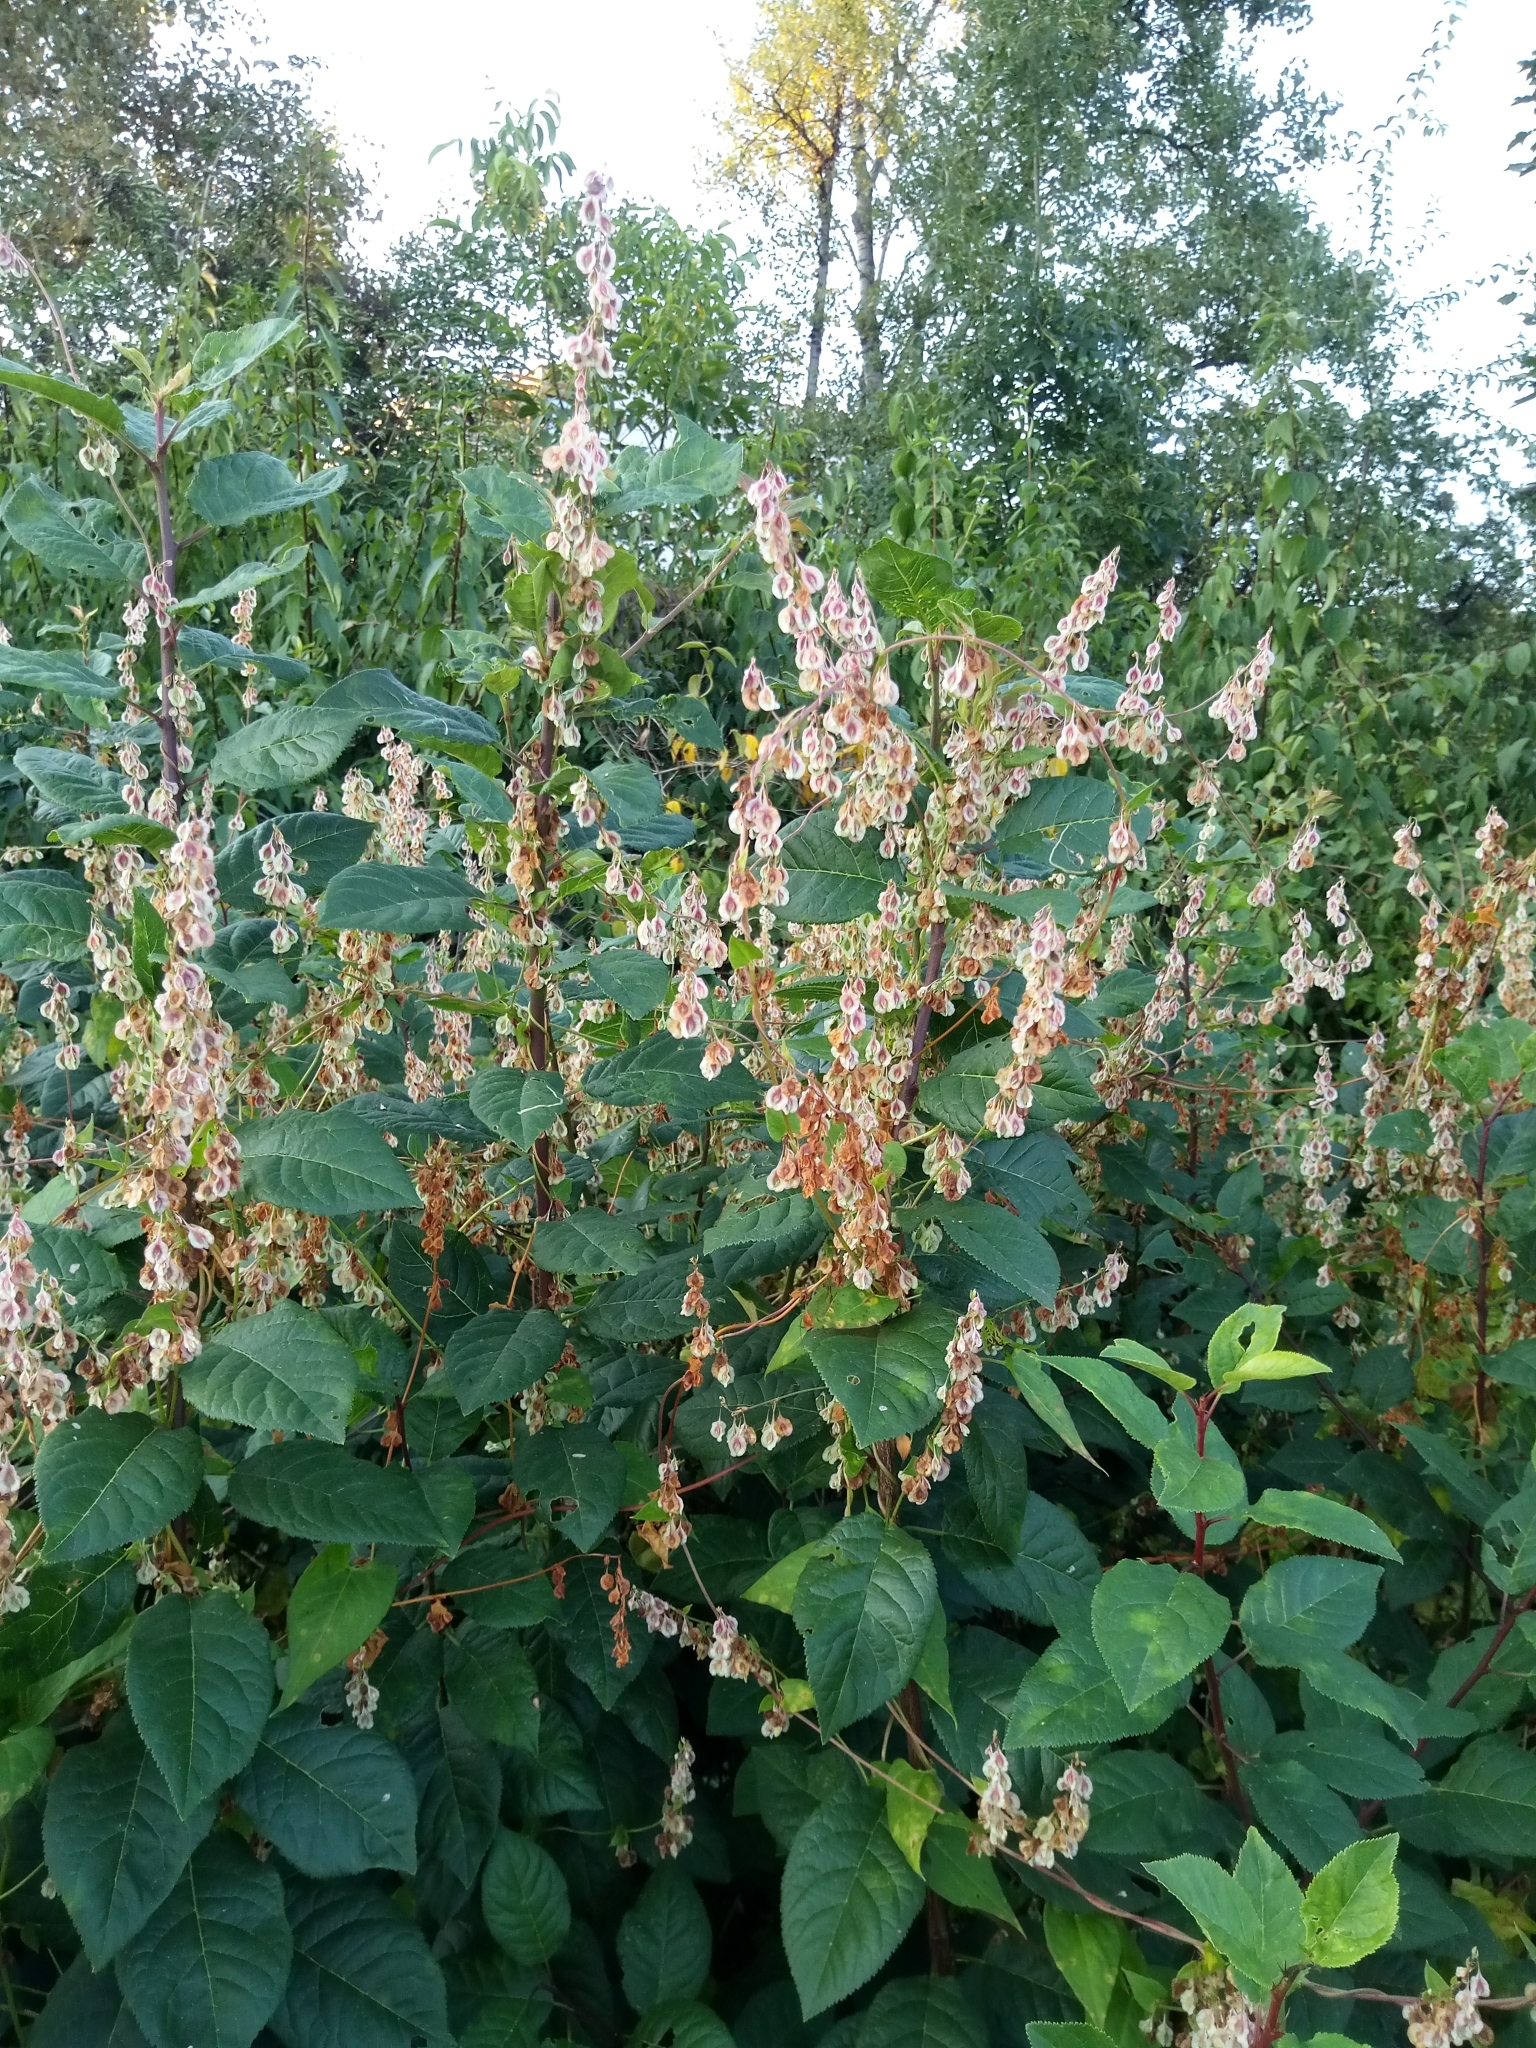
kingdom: Plantae
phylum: Tracheophyta
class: Magnoliopsida
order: Caryophyllales
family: Polygonaceae
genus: Fallopia
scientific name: Fallopia dumetorum
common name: Copse-bindweed
